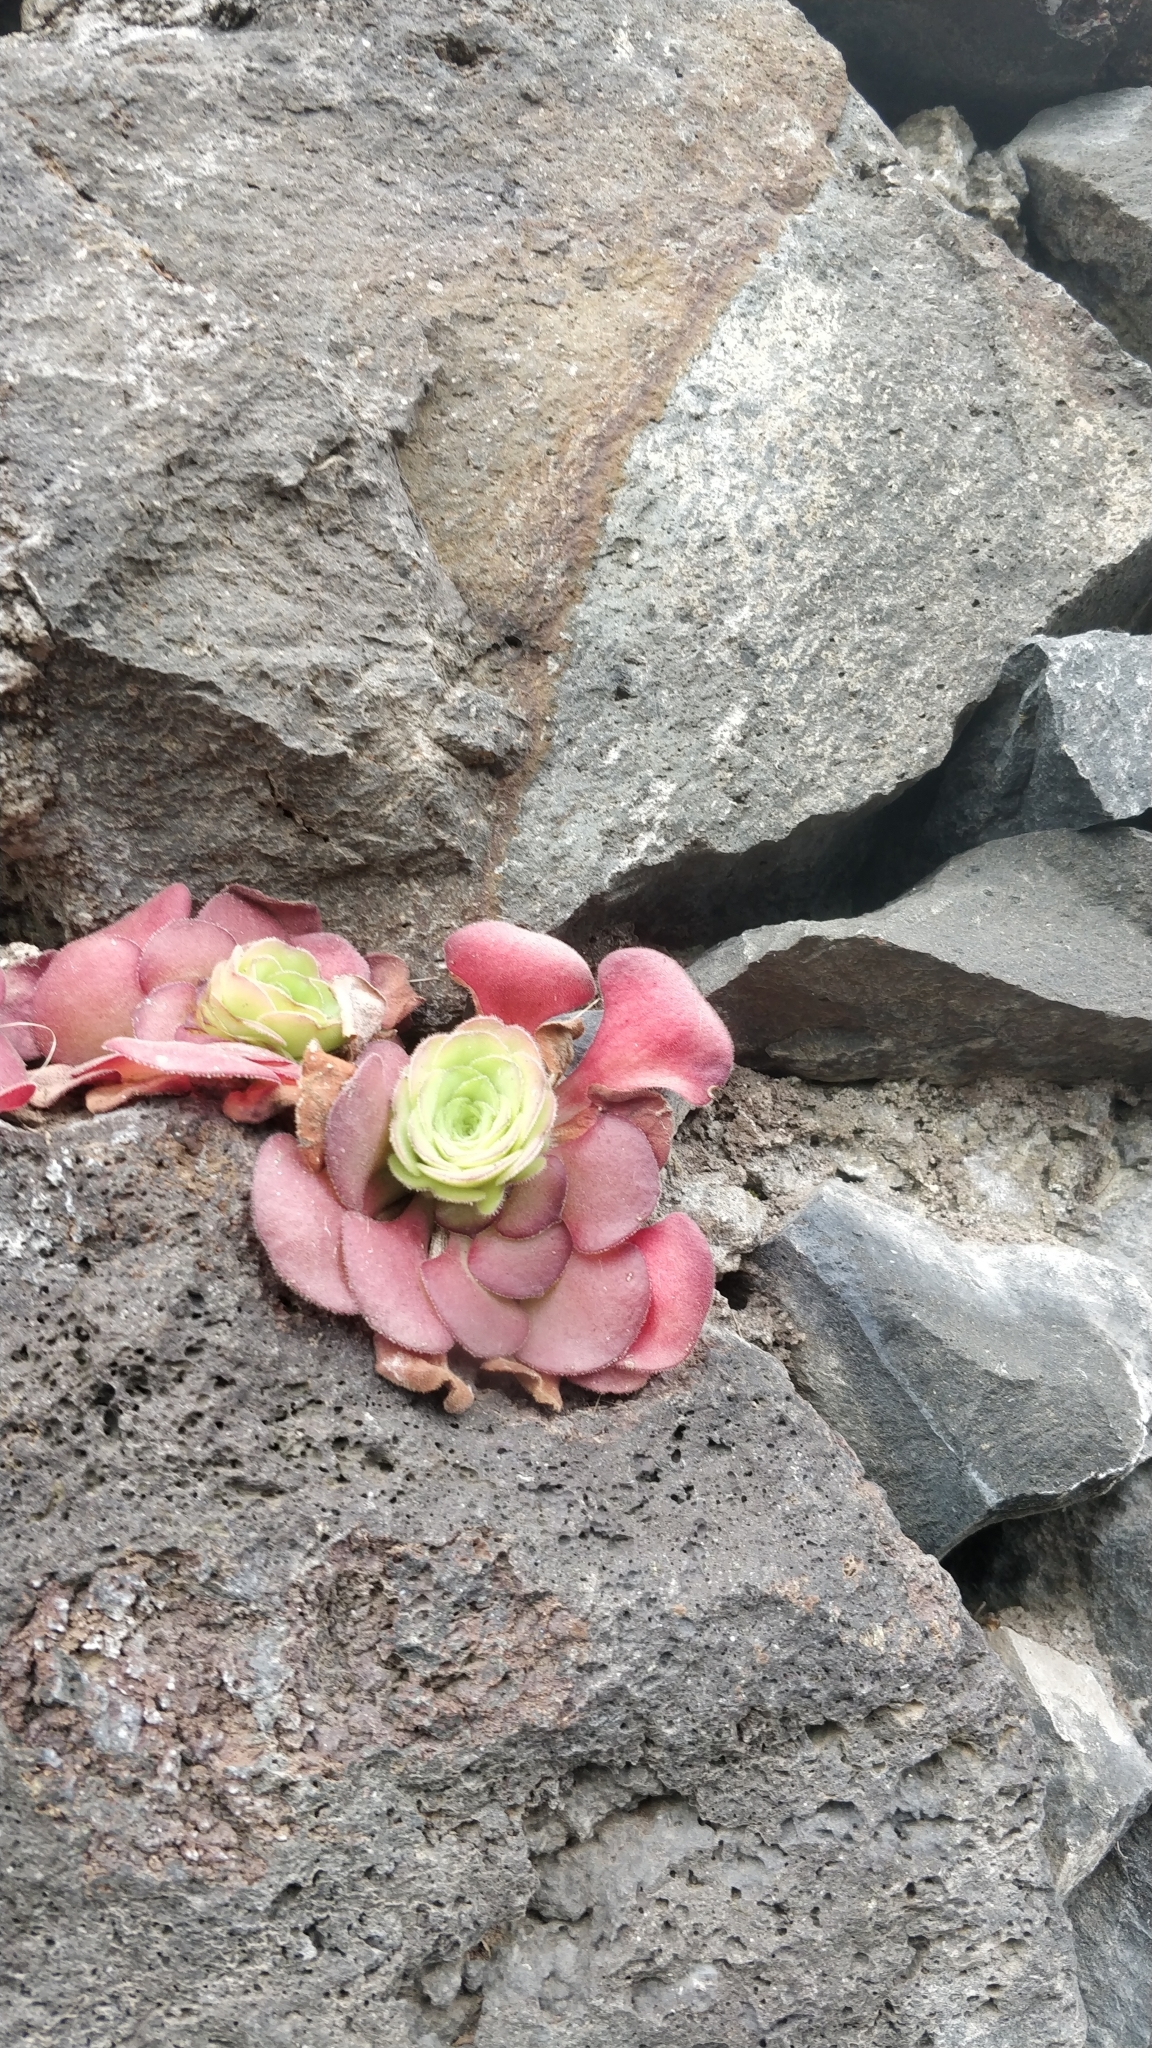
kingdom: Plantae
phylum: Tracheophyta
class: Magnoliopsida
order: Saxifragales
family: Crassulaceae
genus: Aeonium
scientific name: Aeonium glandulosum
